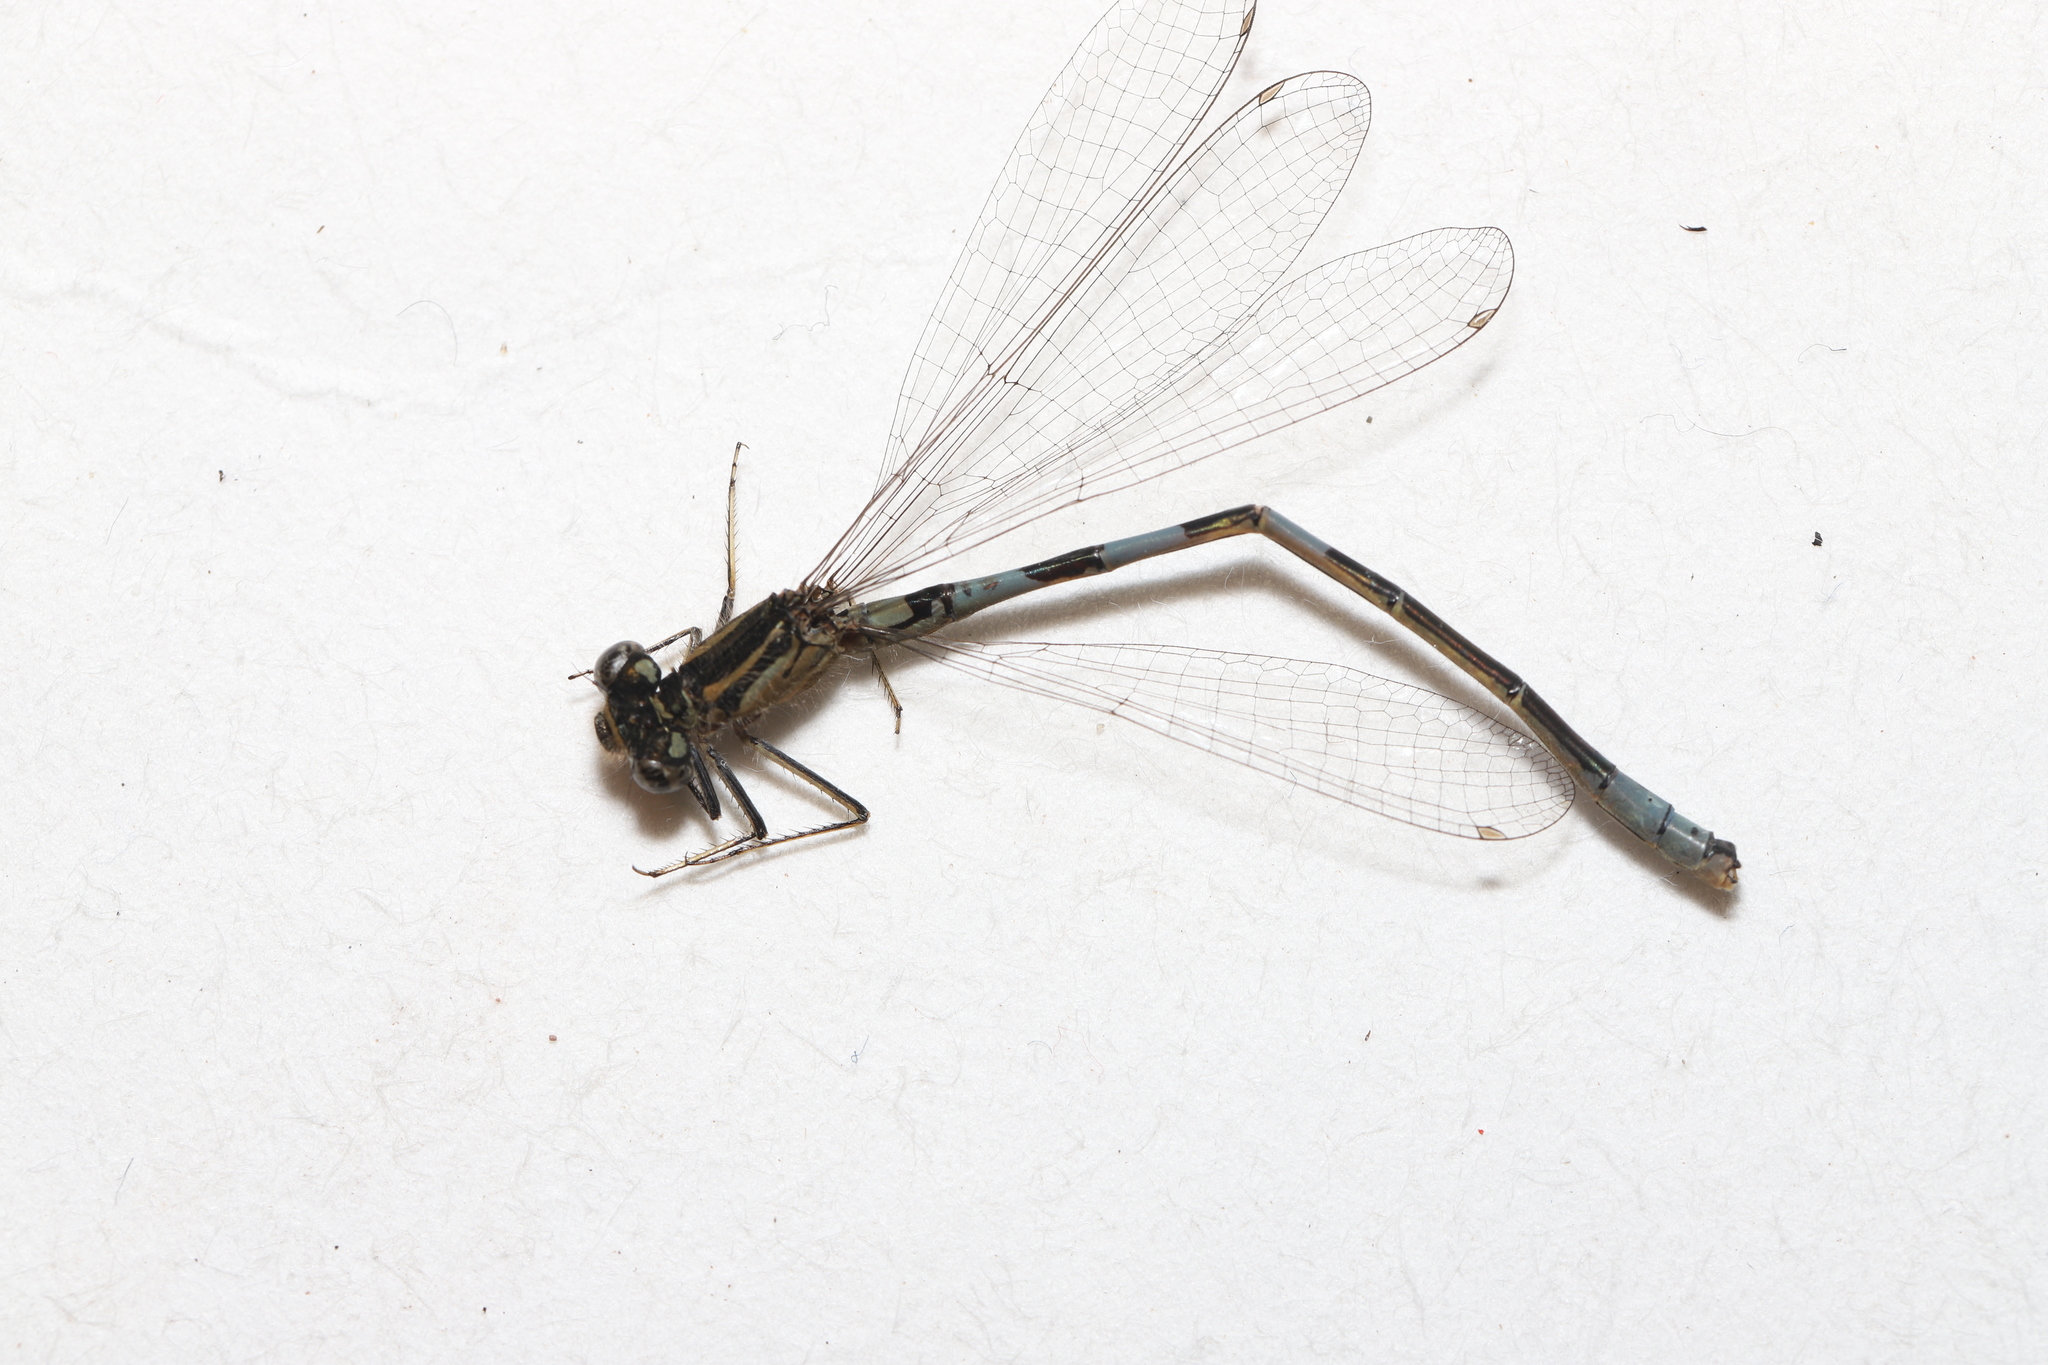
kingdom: Animalia
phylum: Arthropoda
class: Insecta
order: Odonata
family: Coenagrionidae
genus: Coenagrion
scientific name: Coenagrion resolutum
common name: Taiga bluet
